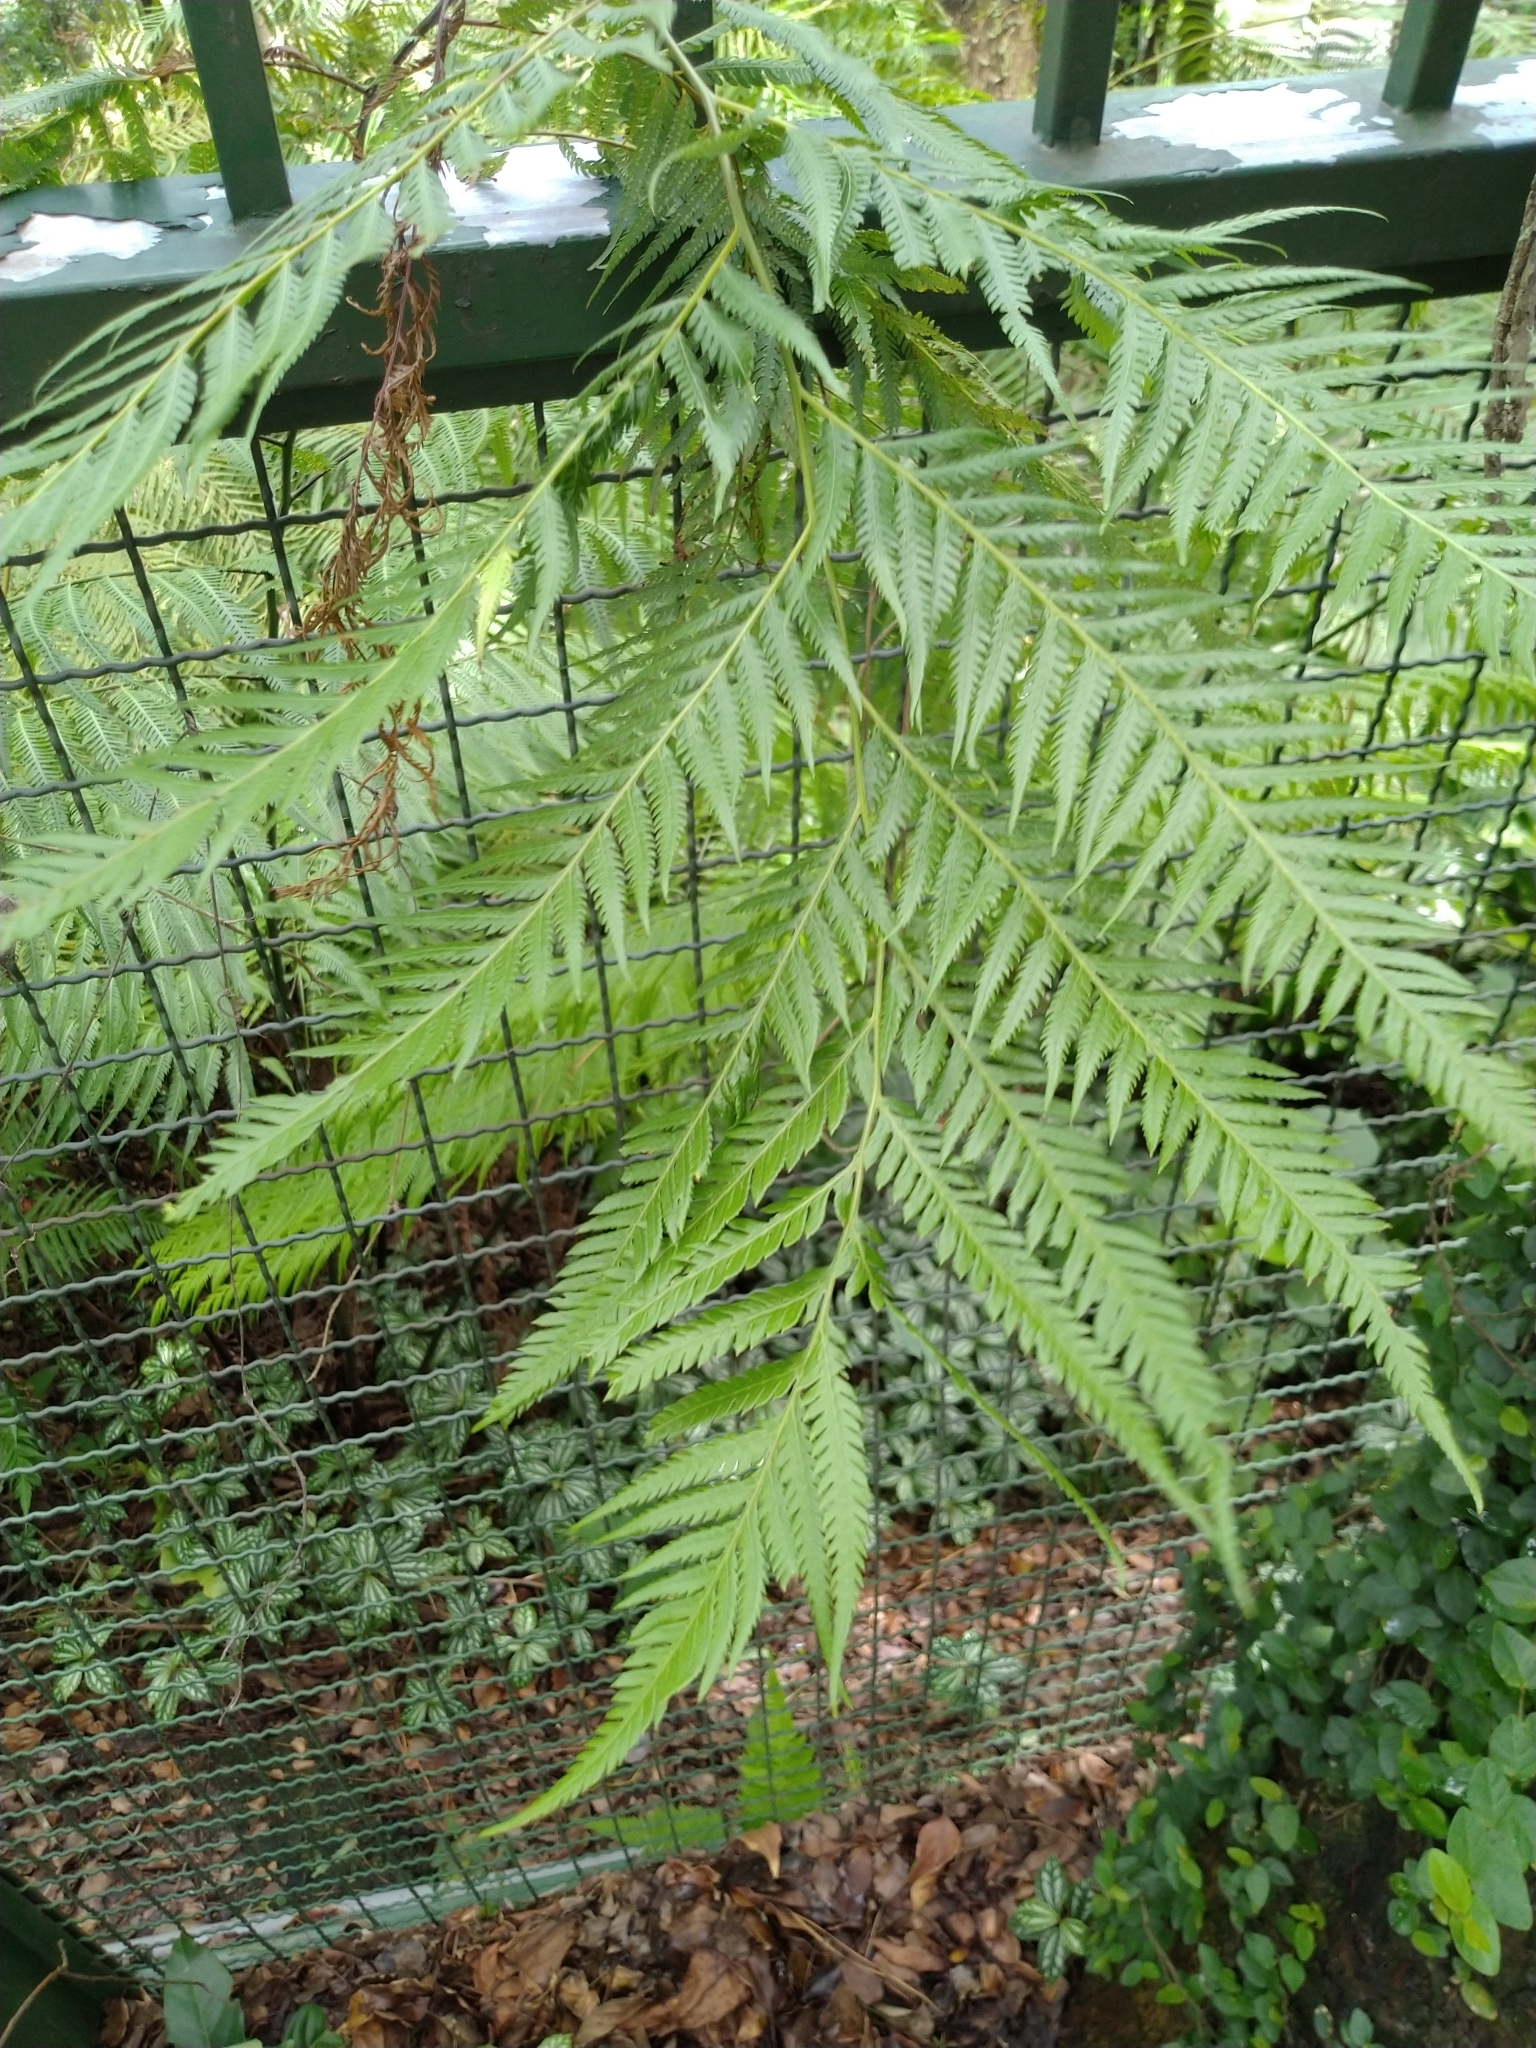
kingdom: Plantae
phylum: Tracheophyta
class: Polypodiopsida
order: Cyatheales
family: Cibotiaceae
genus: Cibotium
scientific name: Cibotium taiwanense
